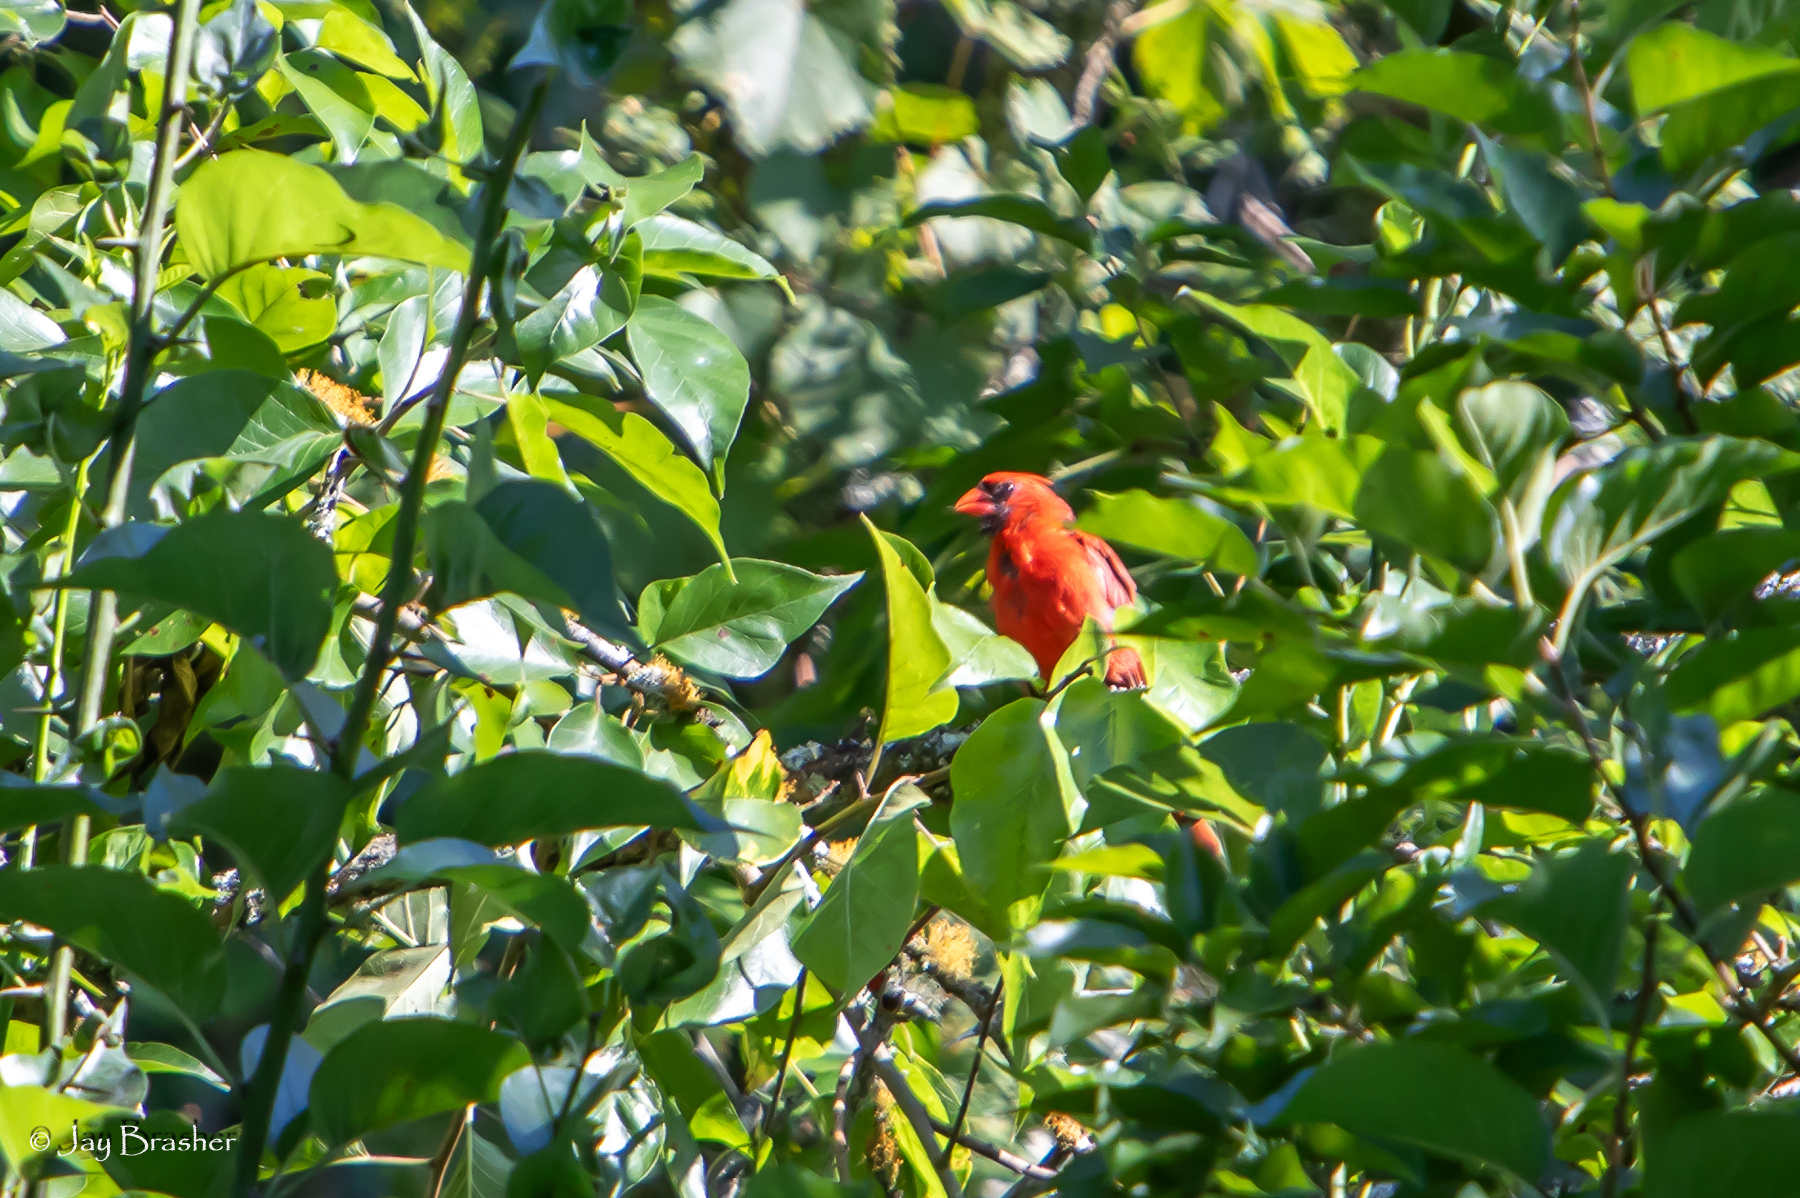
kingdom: Animalia
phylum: Chordata
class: Aves
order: Passeriformes
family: Cardinalidae
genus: Cardinalis
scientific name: Cardinalis cardinalis
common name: Northern cardinal
